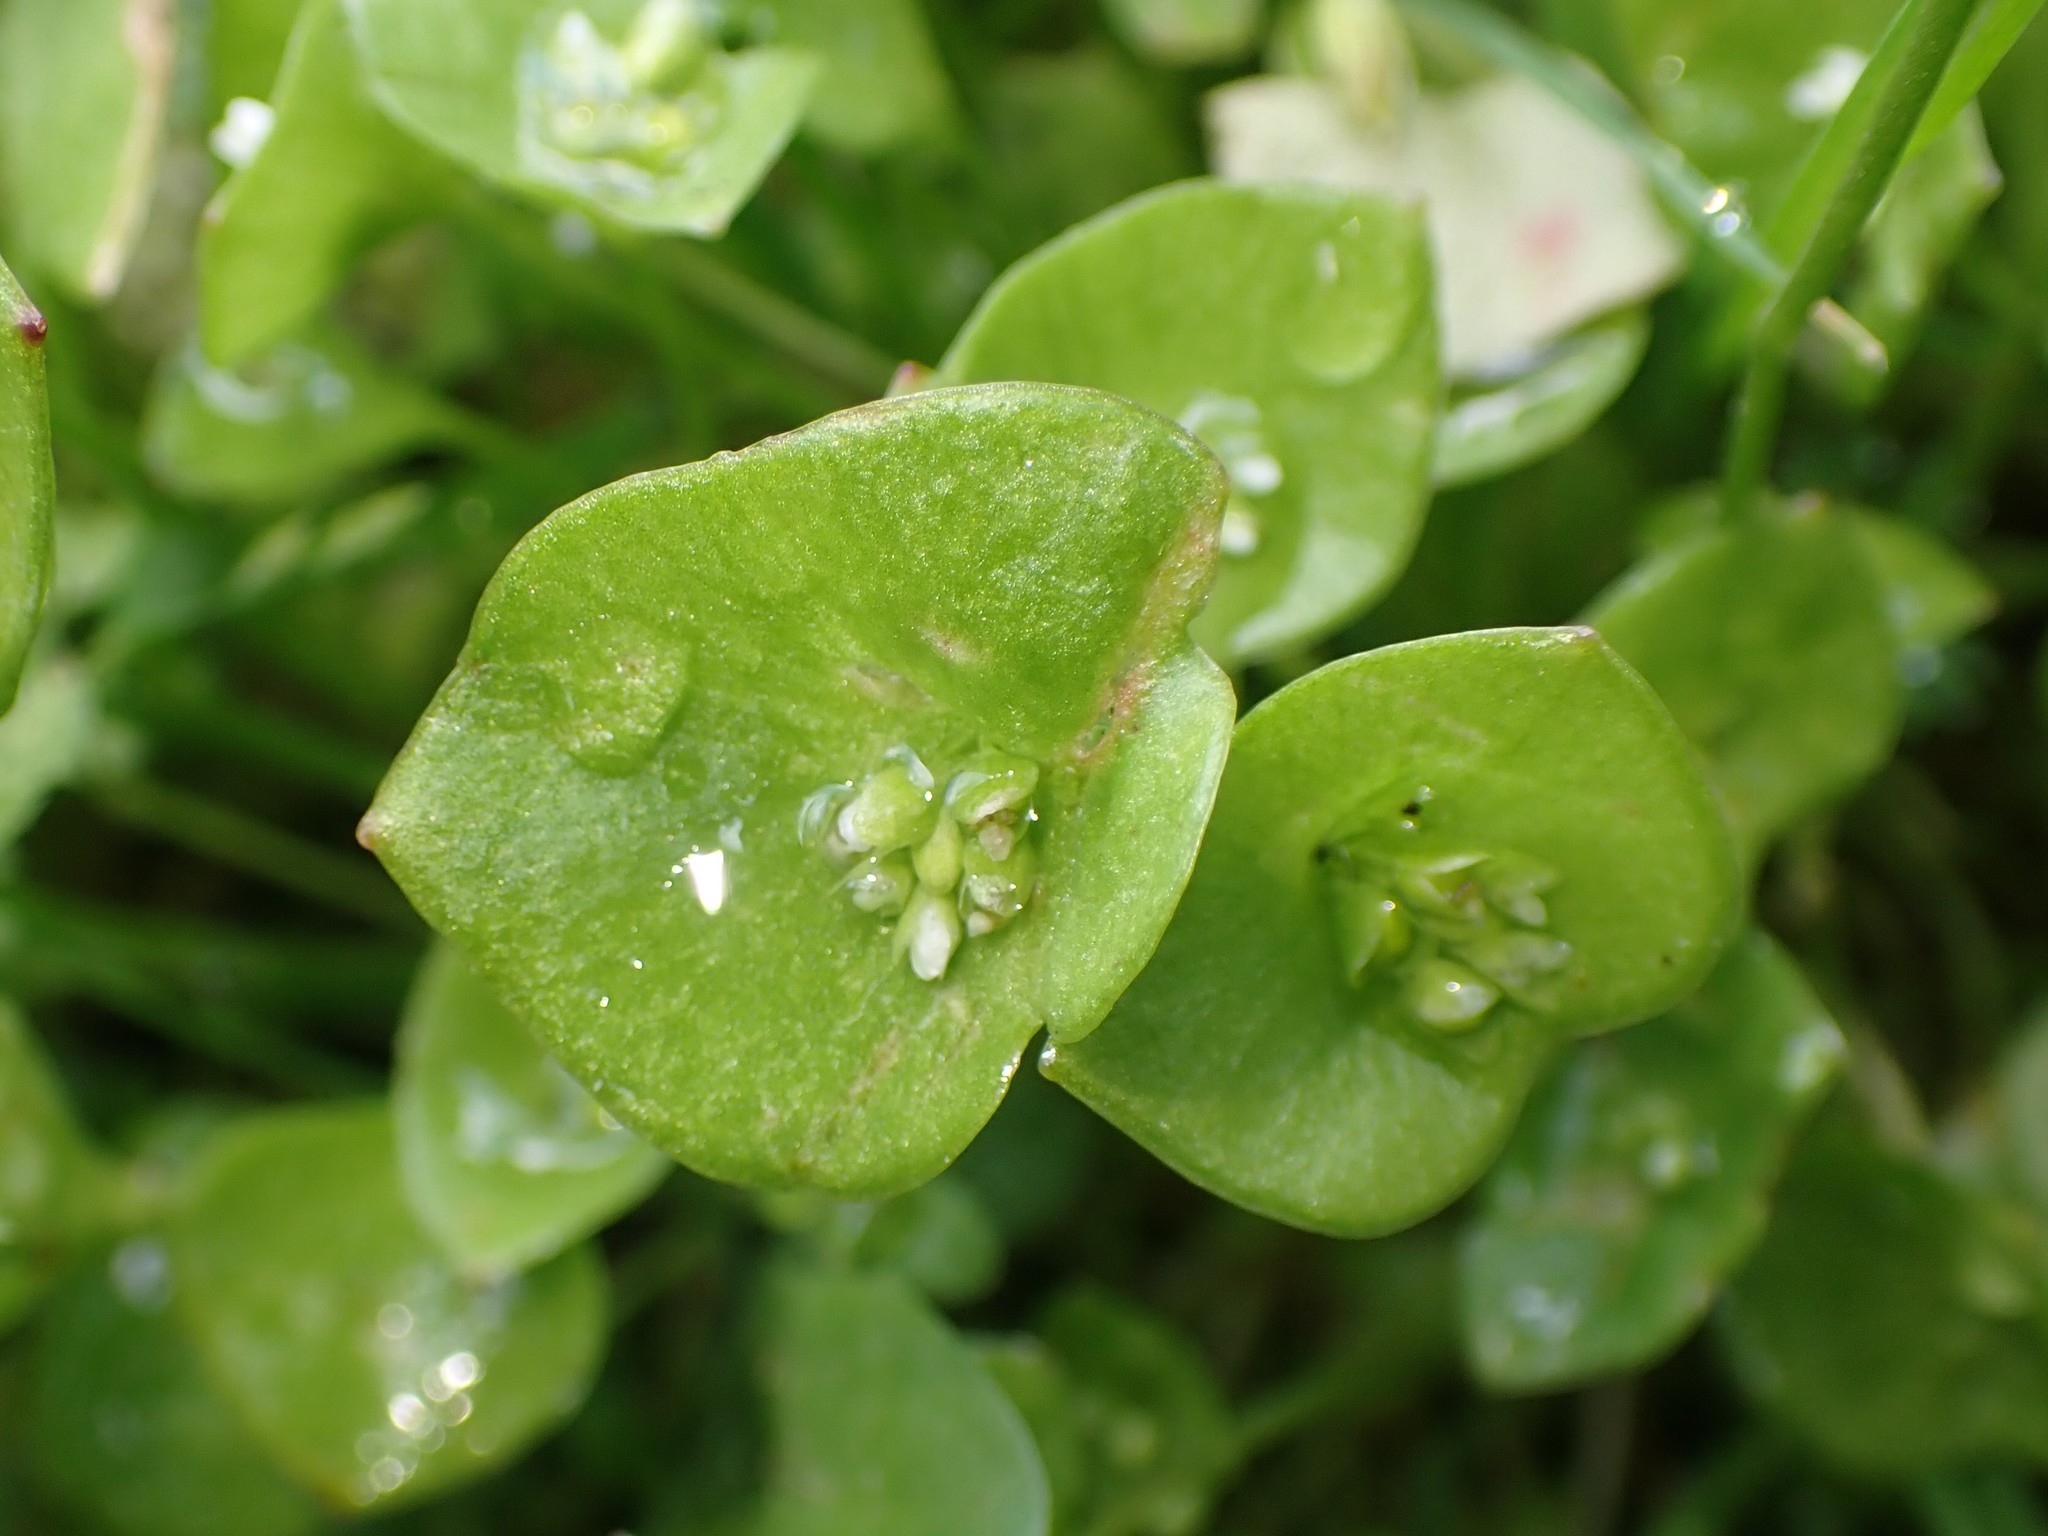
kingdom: Plantae
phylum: Tracheophyta
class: Magnoliopsida
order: Caryophyllales
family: Montiaceae
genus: Claytonia
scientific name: Claytonia perfoliata
